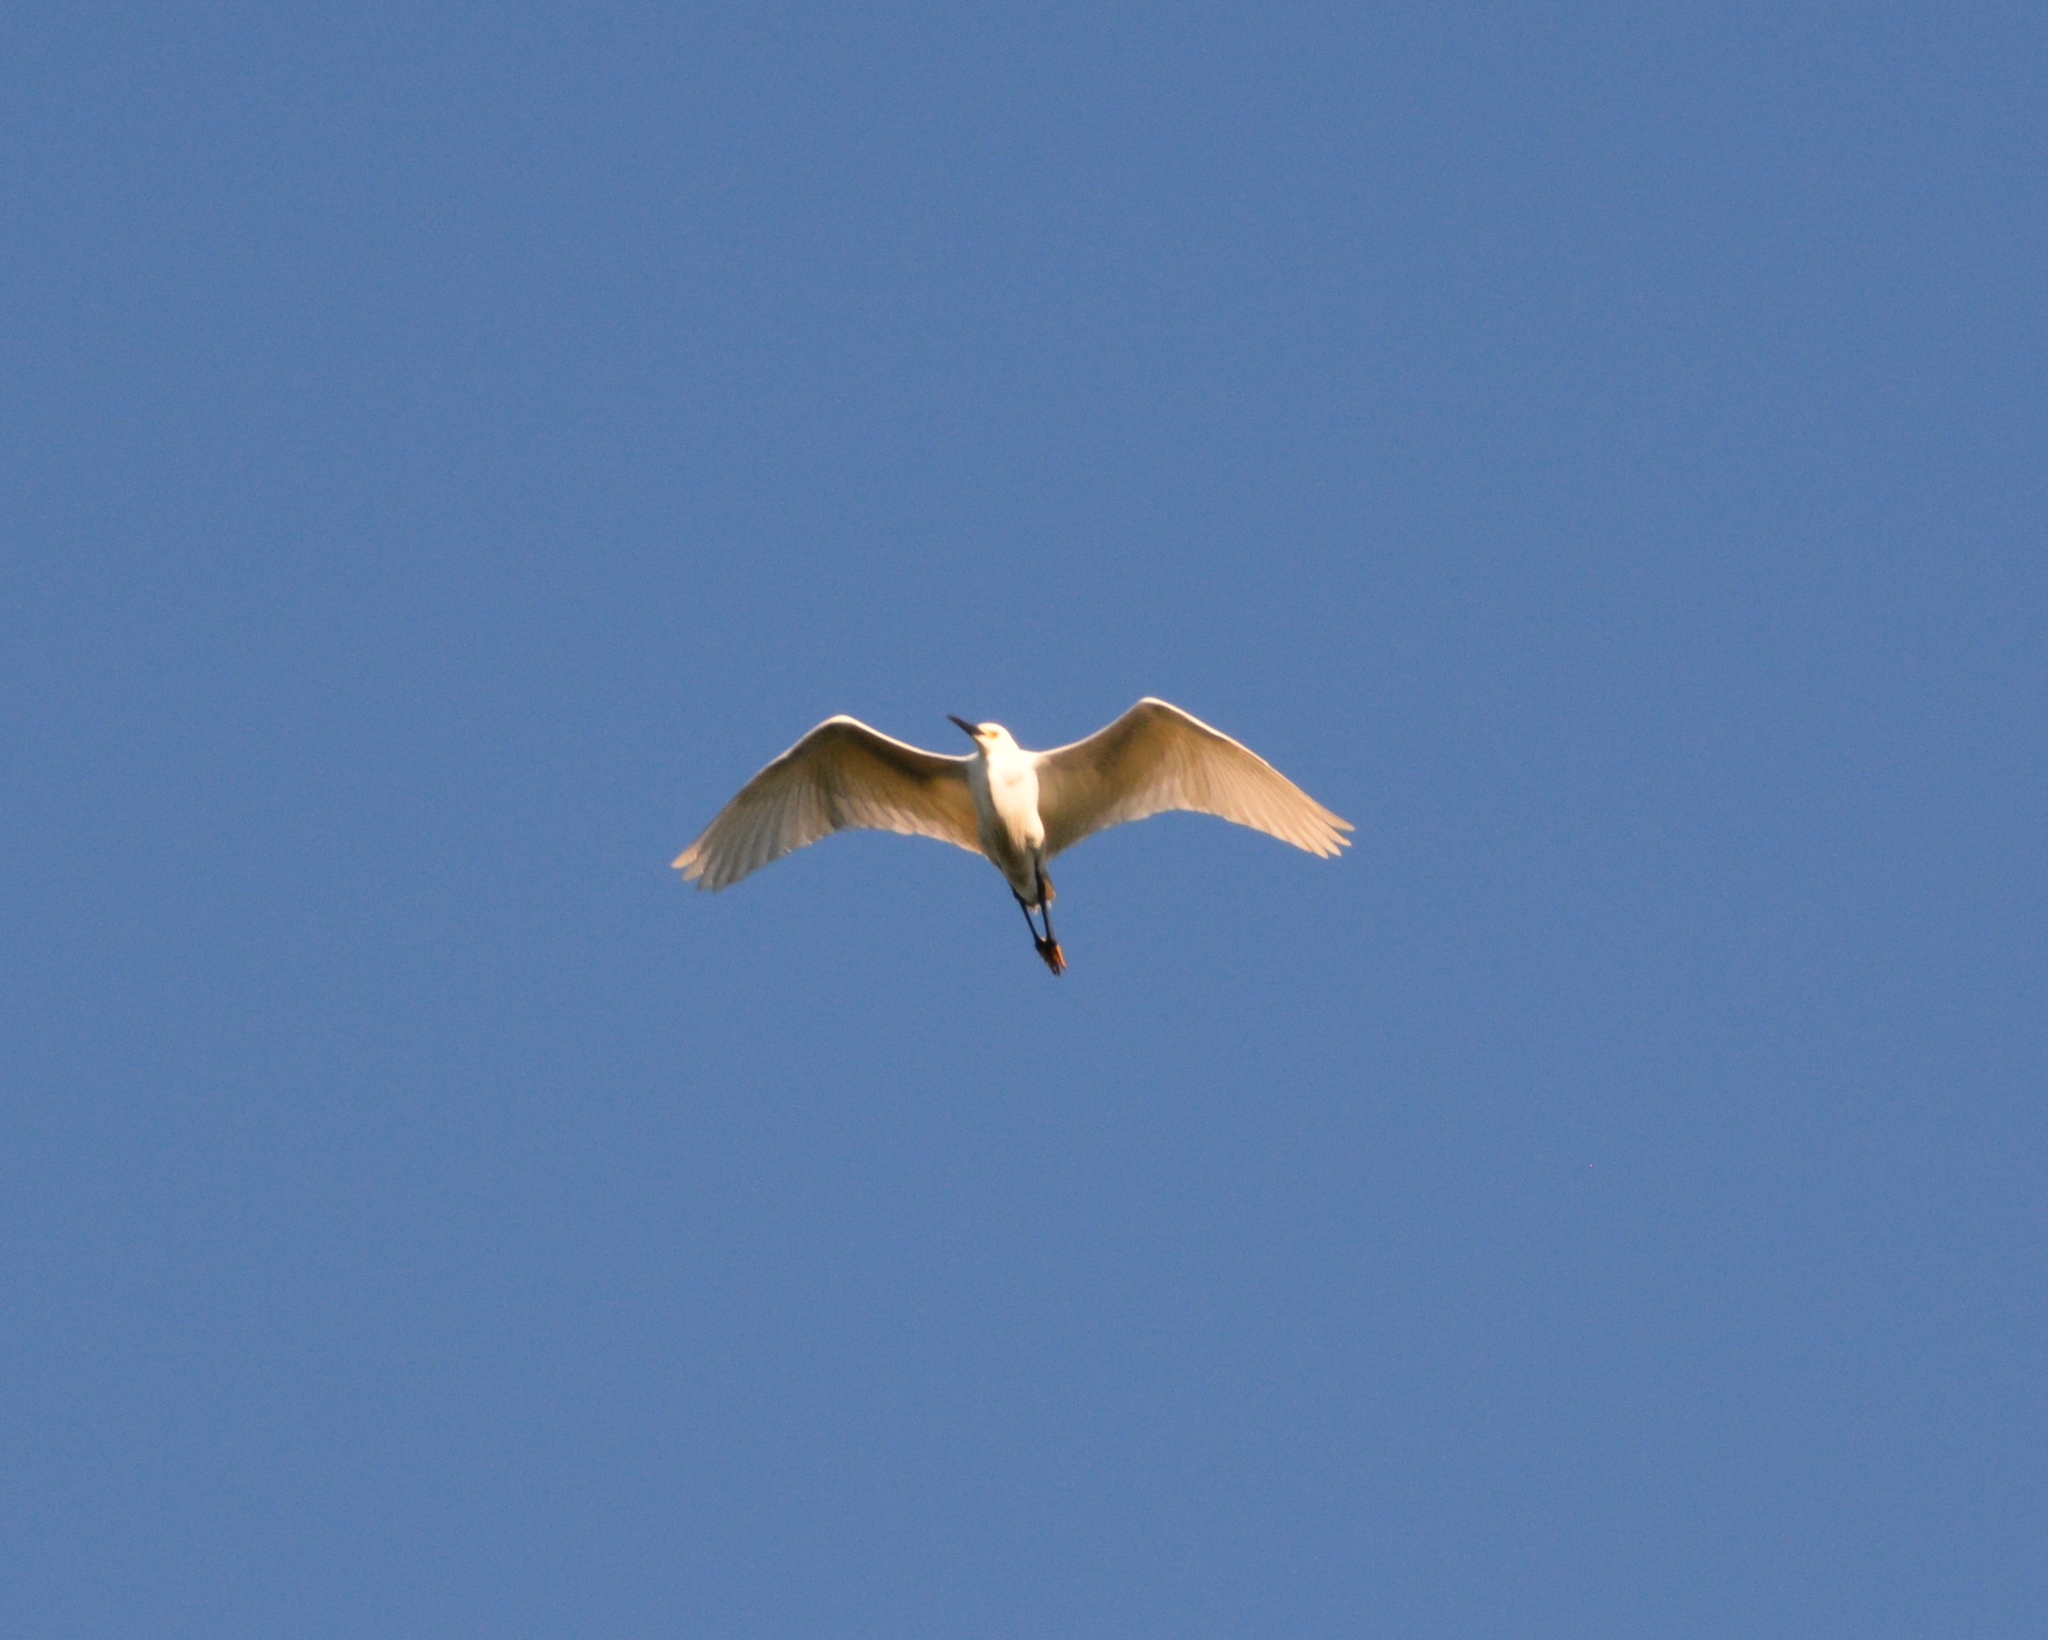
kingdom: Animalia
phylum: Chordata
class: Aves
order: Pelecaniformes
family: Ardeidae
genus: Egretta
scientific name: Egretta thula
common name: Snowy egret
